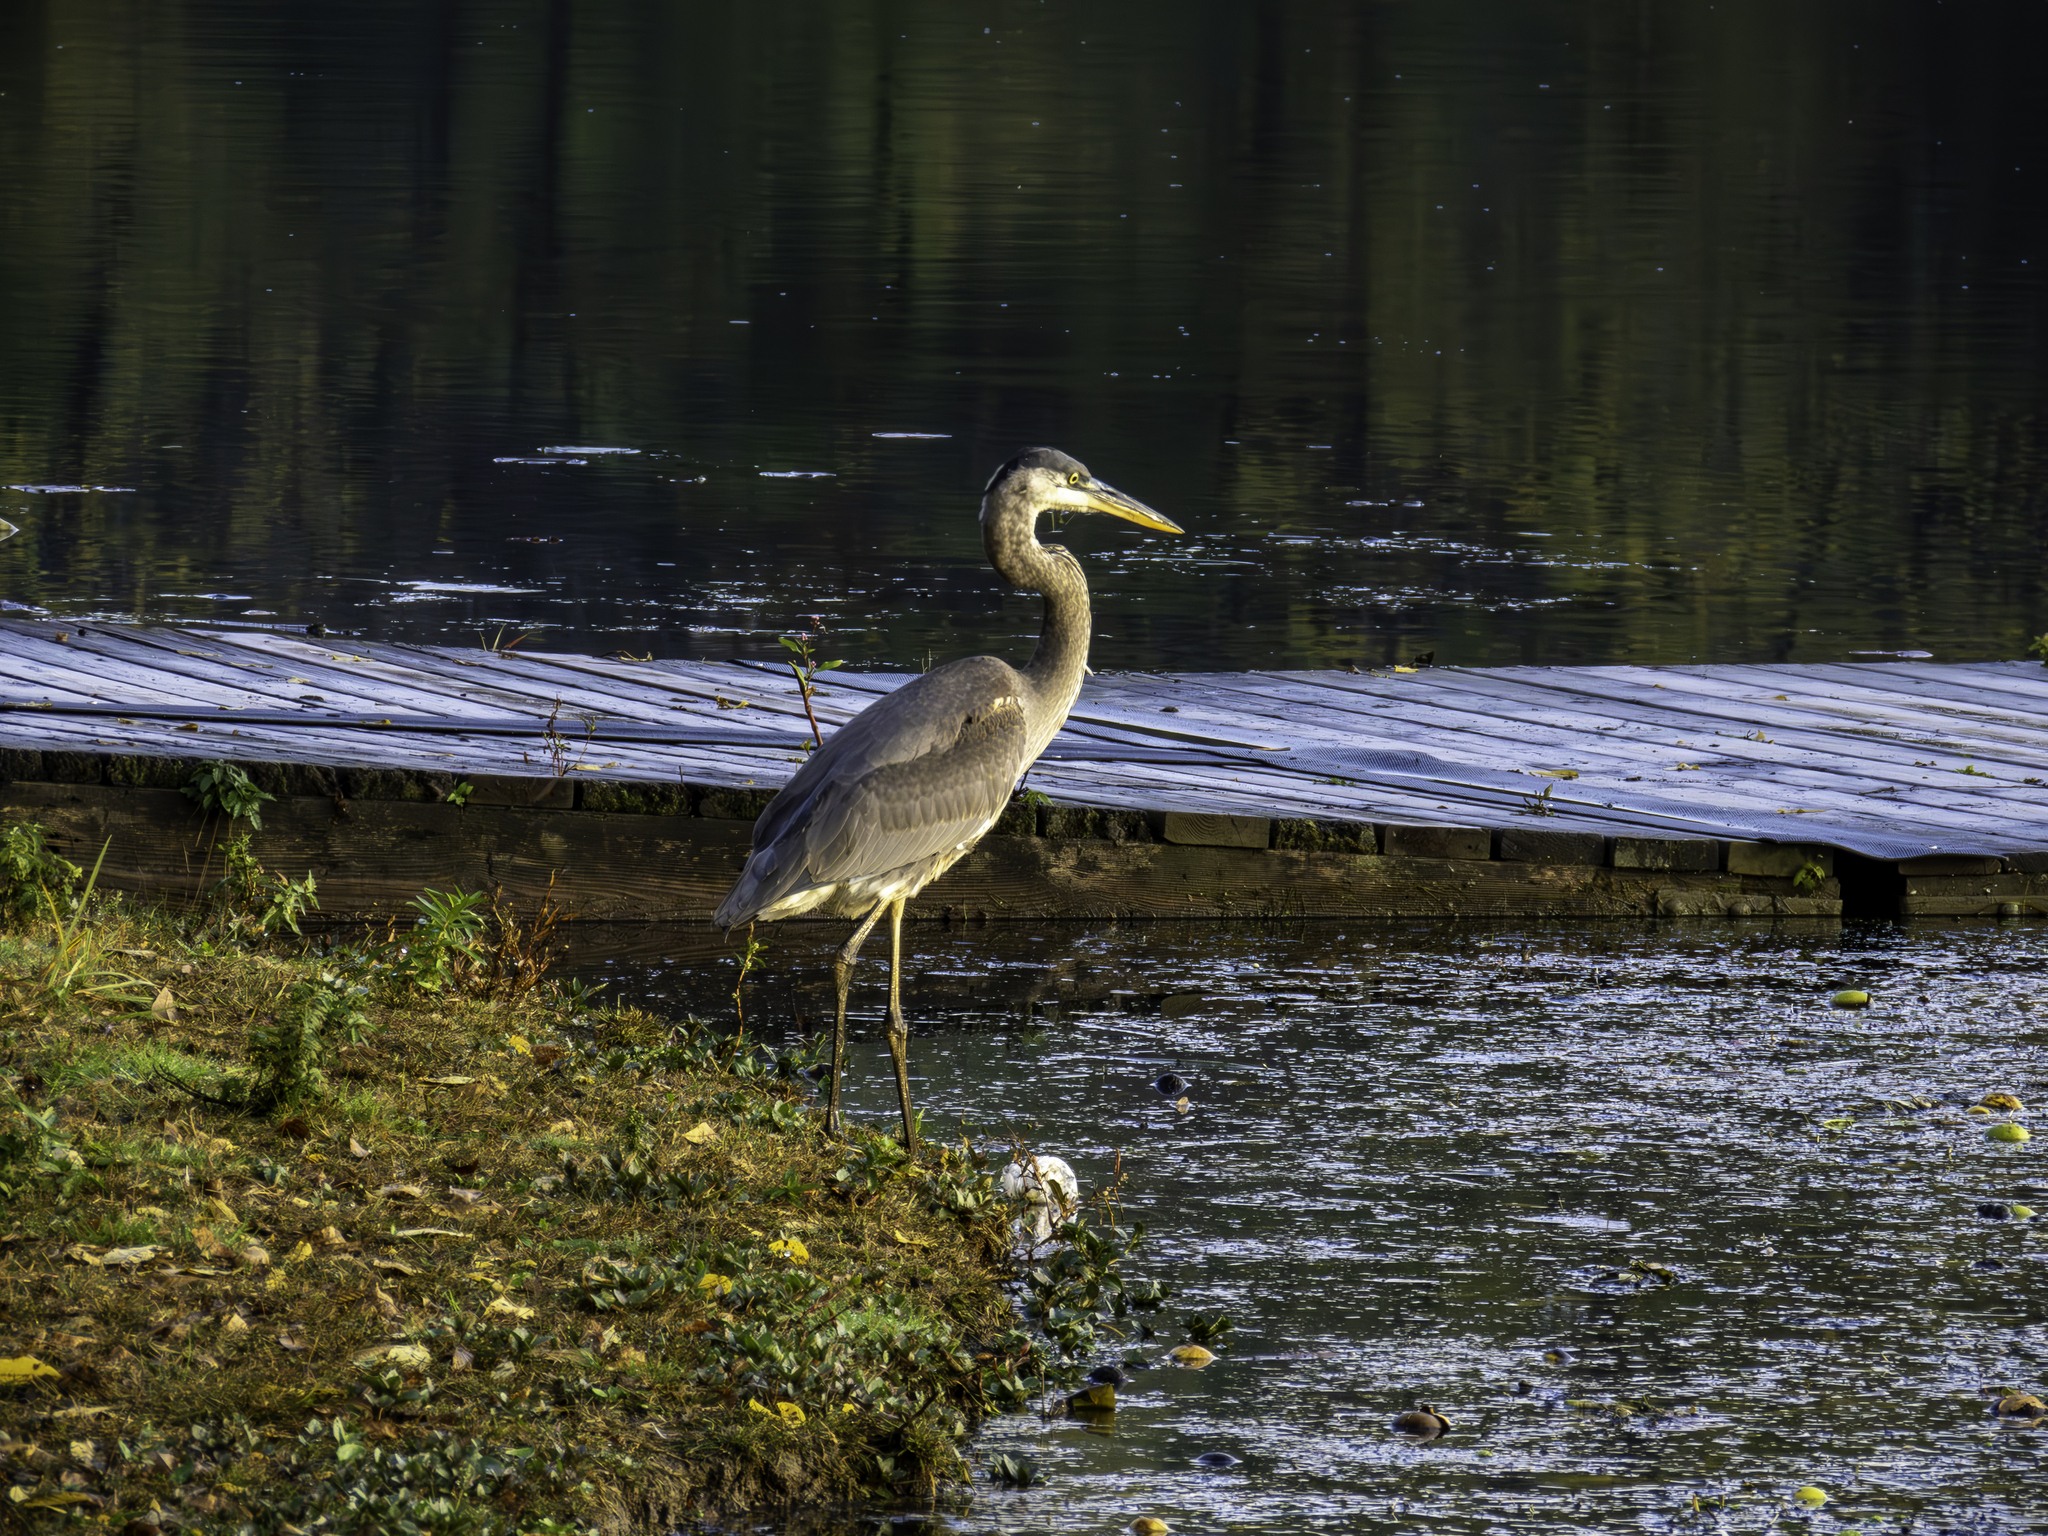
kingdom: Animalia
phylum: Chordata
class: Aves
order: Pelecaniformes
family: Ardeidae
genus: Ardea
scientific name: Ardea herodias
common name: Great blue heron
